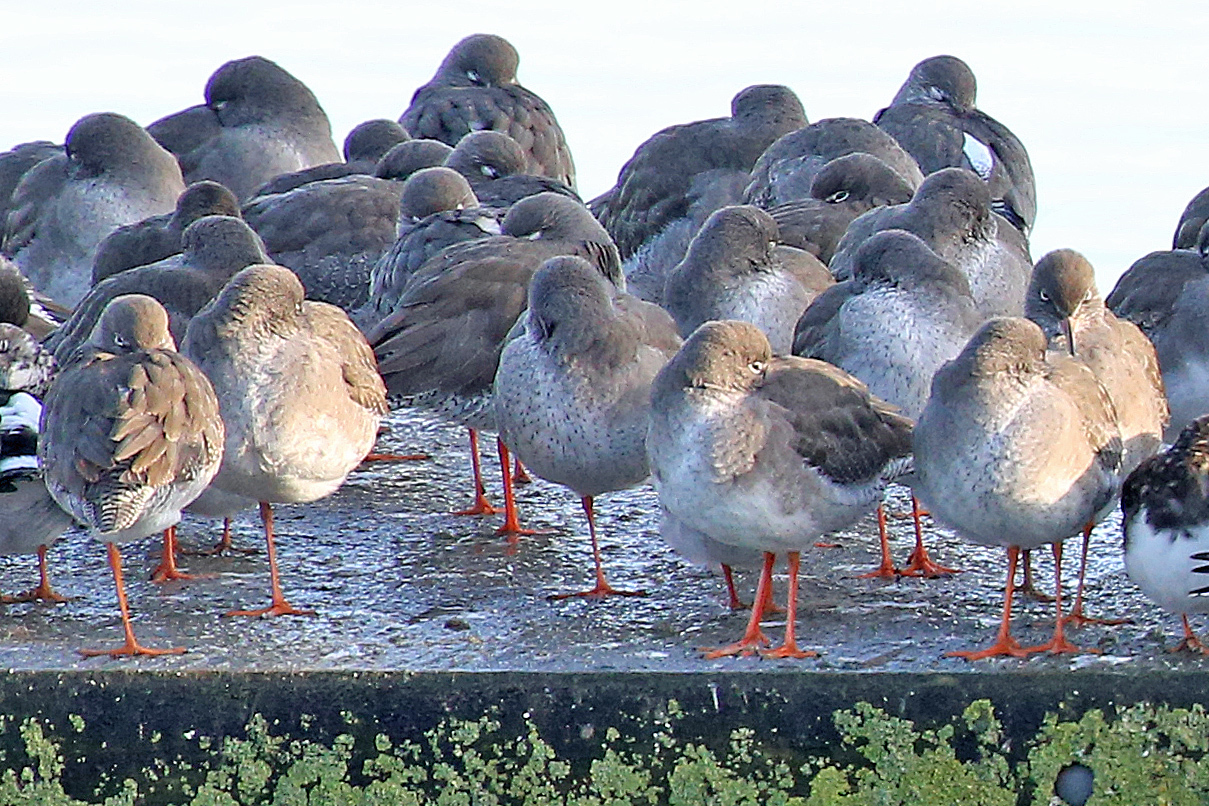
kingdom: Animalia
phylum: Chordata
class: Aves
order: Charadriiformes
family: Scolopacidae
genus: Tringa
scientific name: Tringa totanus
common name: Common redshank
